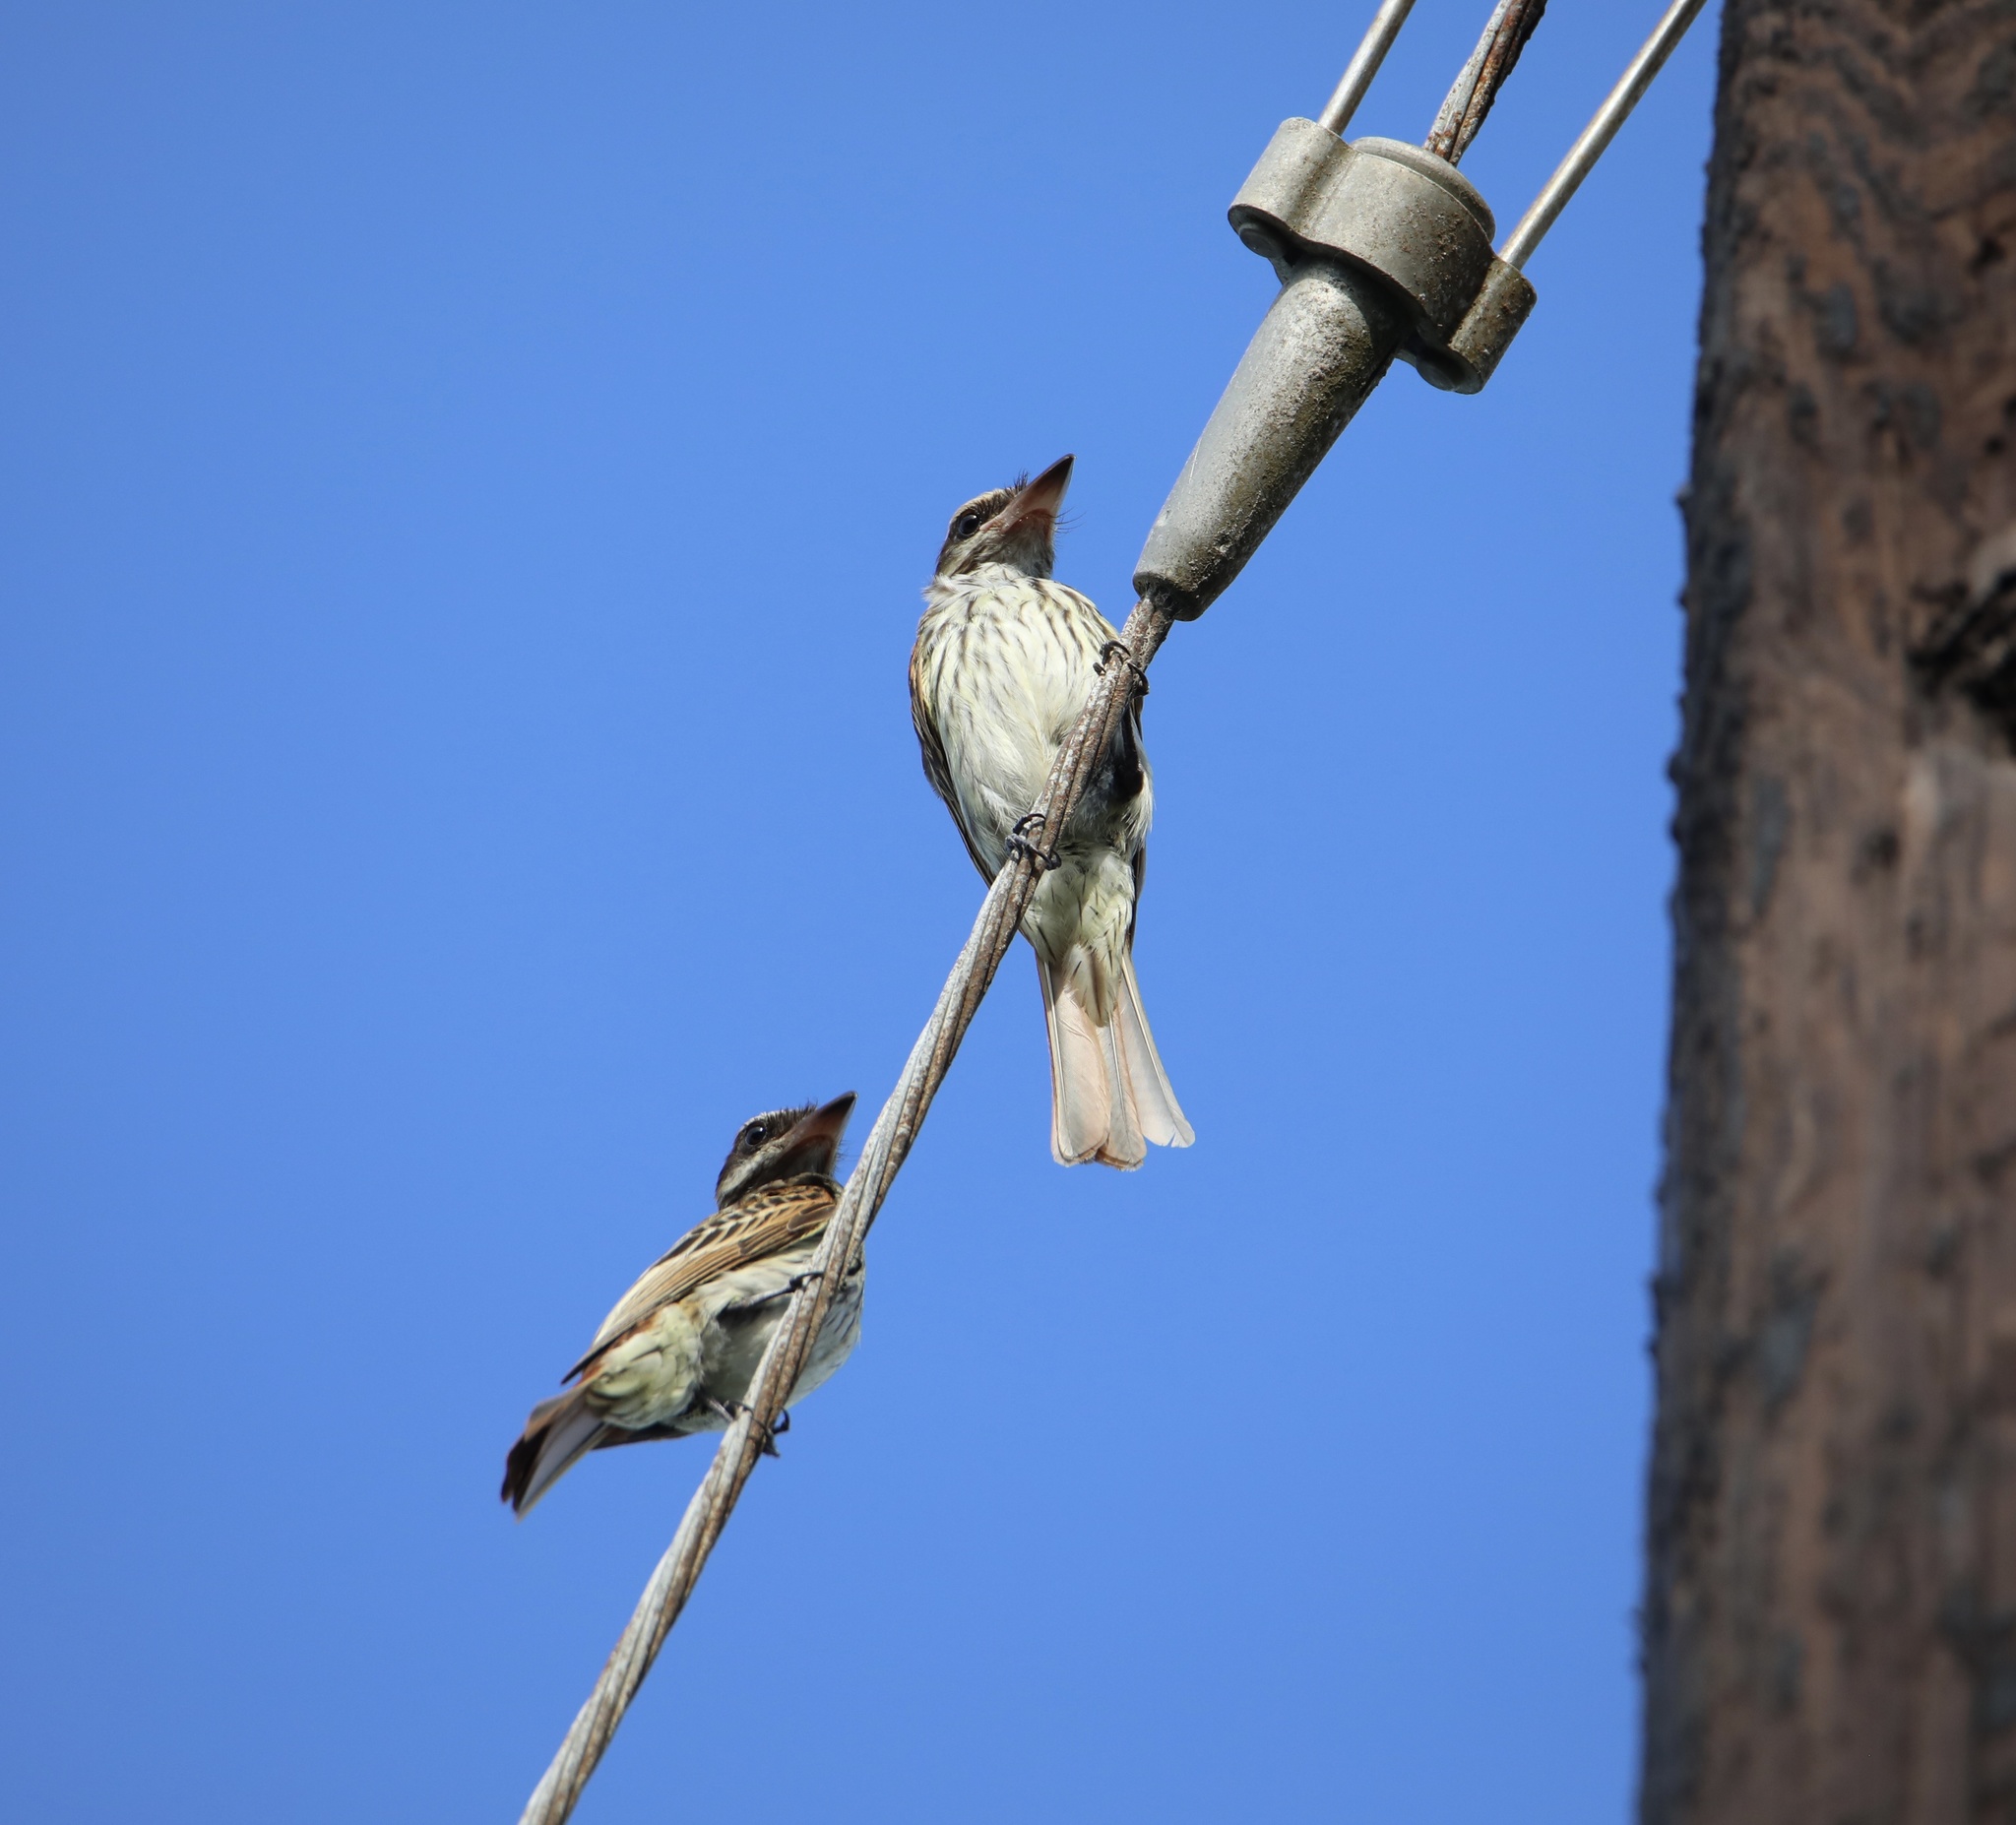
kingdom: Animalia
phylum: Chordata
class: Aves
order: Passeriformes
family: Tyrannidae
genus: Myiodynastes
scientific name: Myiodynastes maculatus
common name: Streaked flycatcher
